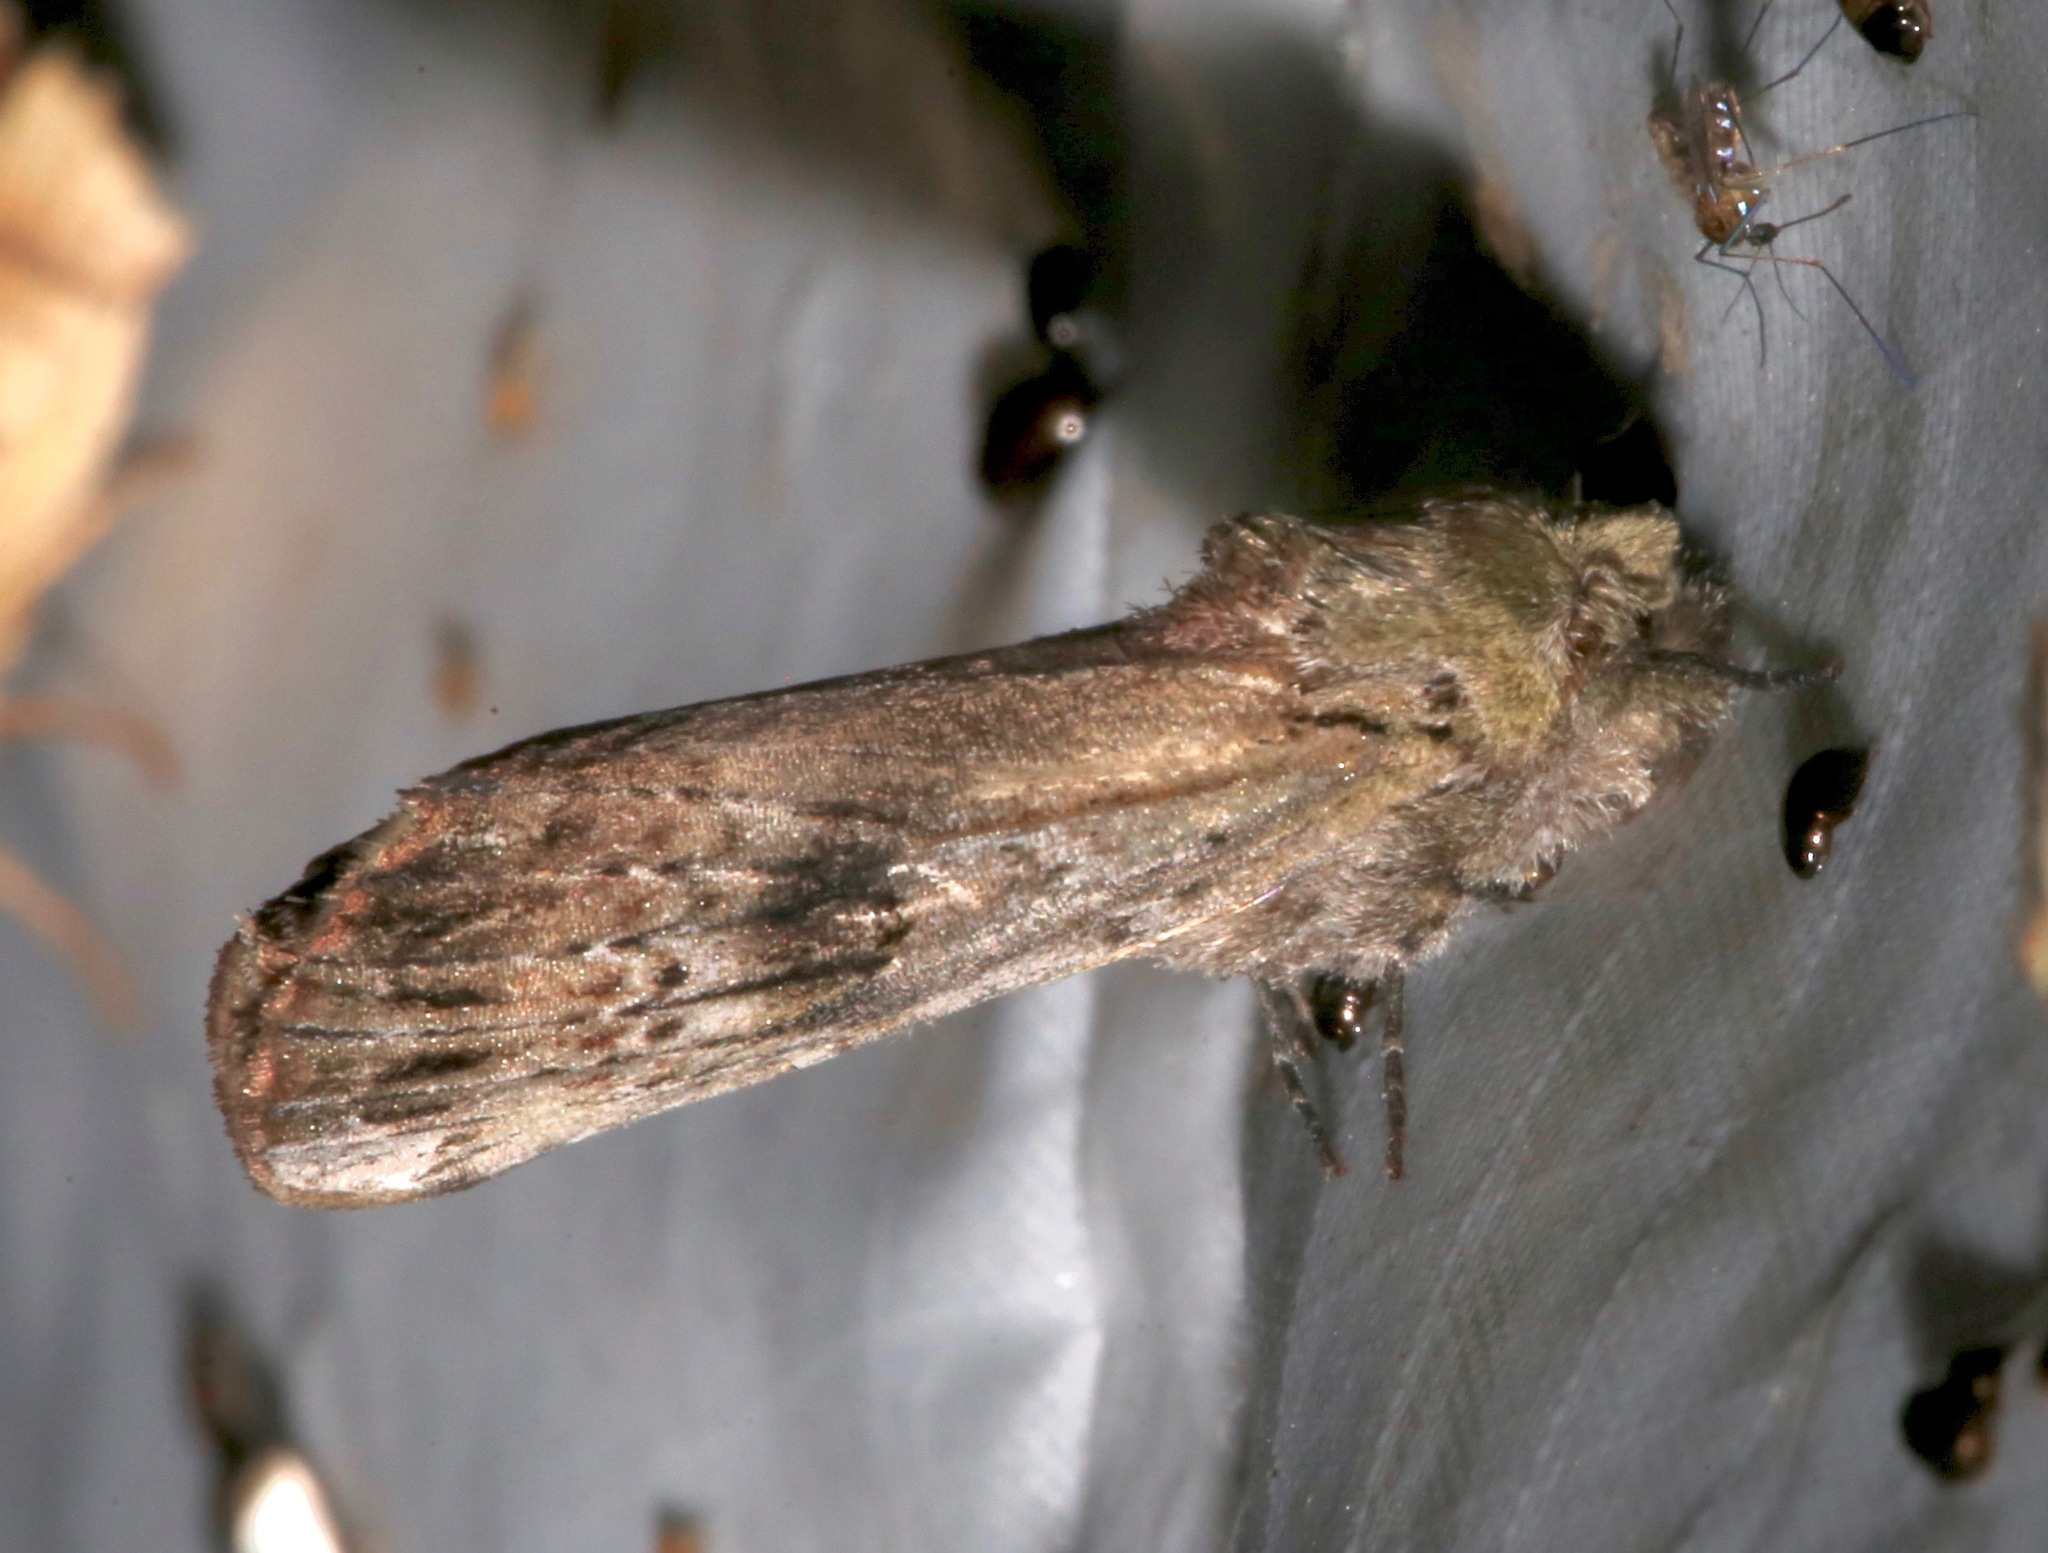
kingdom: Animalia
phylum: Arthropoda
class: Insecta
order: Lepidoptera
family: Notodontidae
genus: Schizura
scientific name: Schizura
